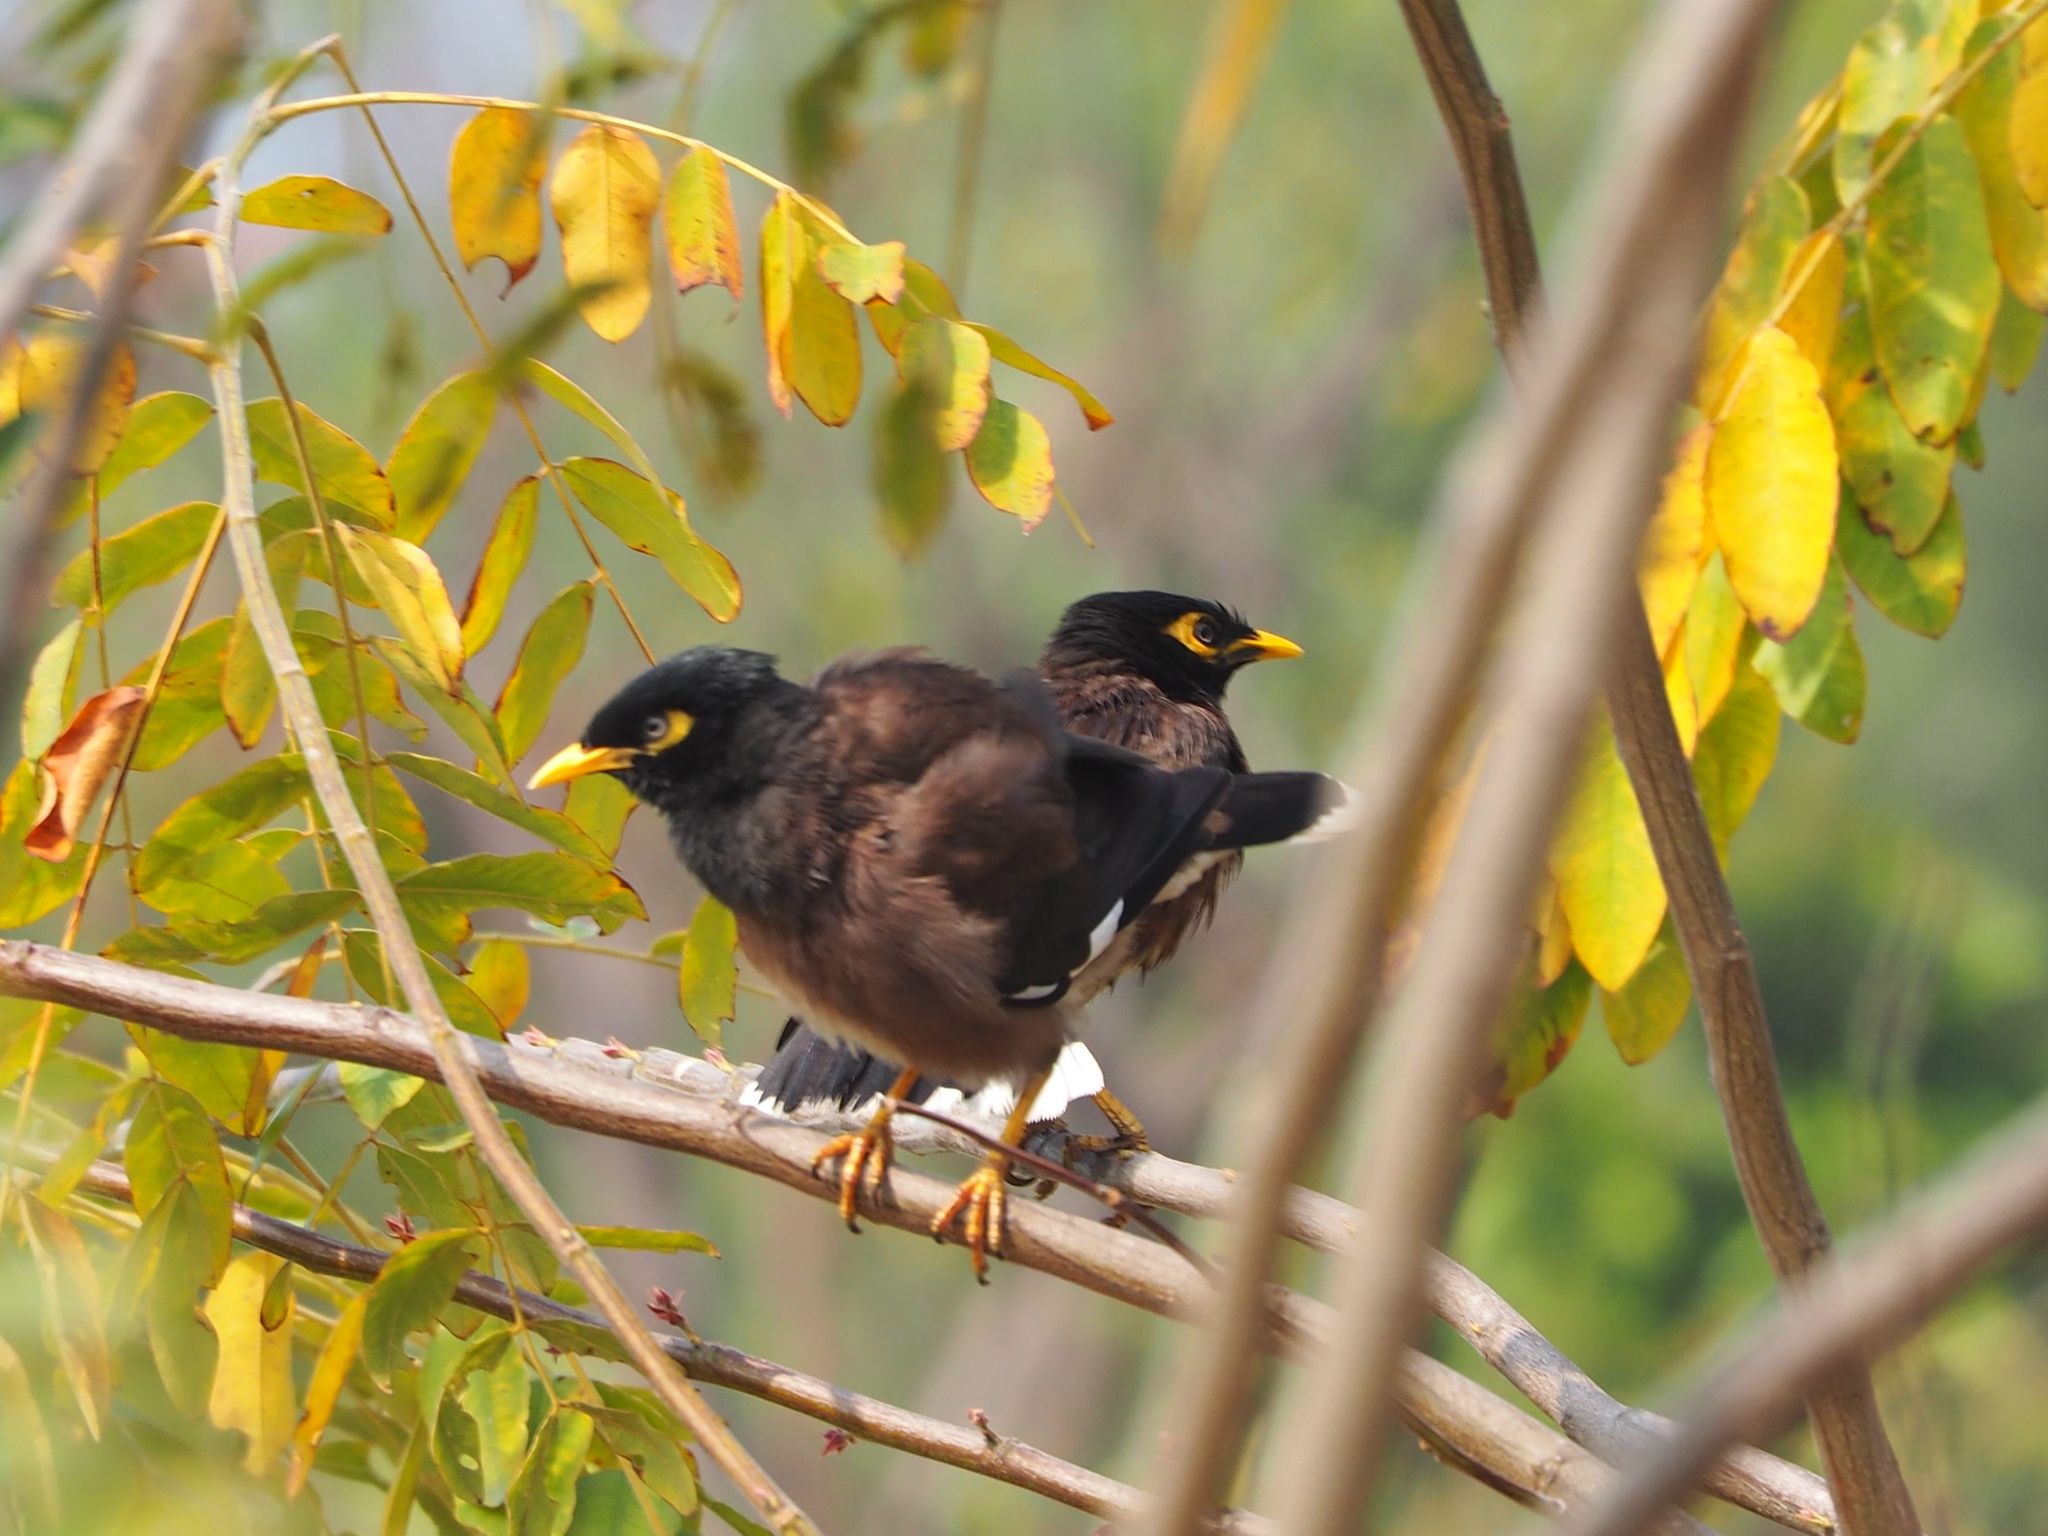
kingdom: Animalia
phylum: Chordata
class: Aves
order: Passeriformes
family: Sturnidae
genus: Acridotheres
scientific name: Acridotheres tristis
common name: Common myna
